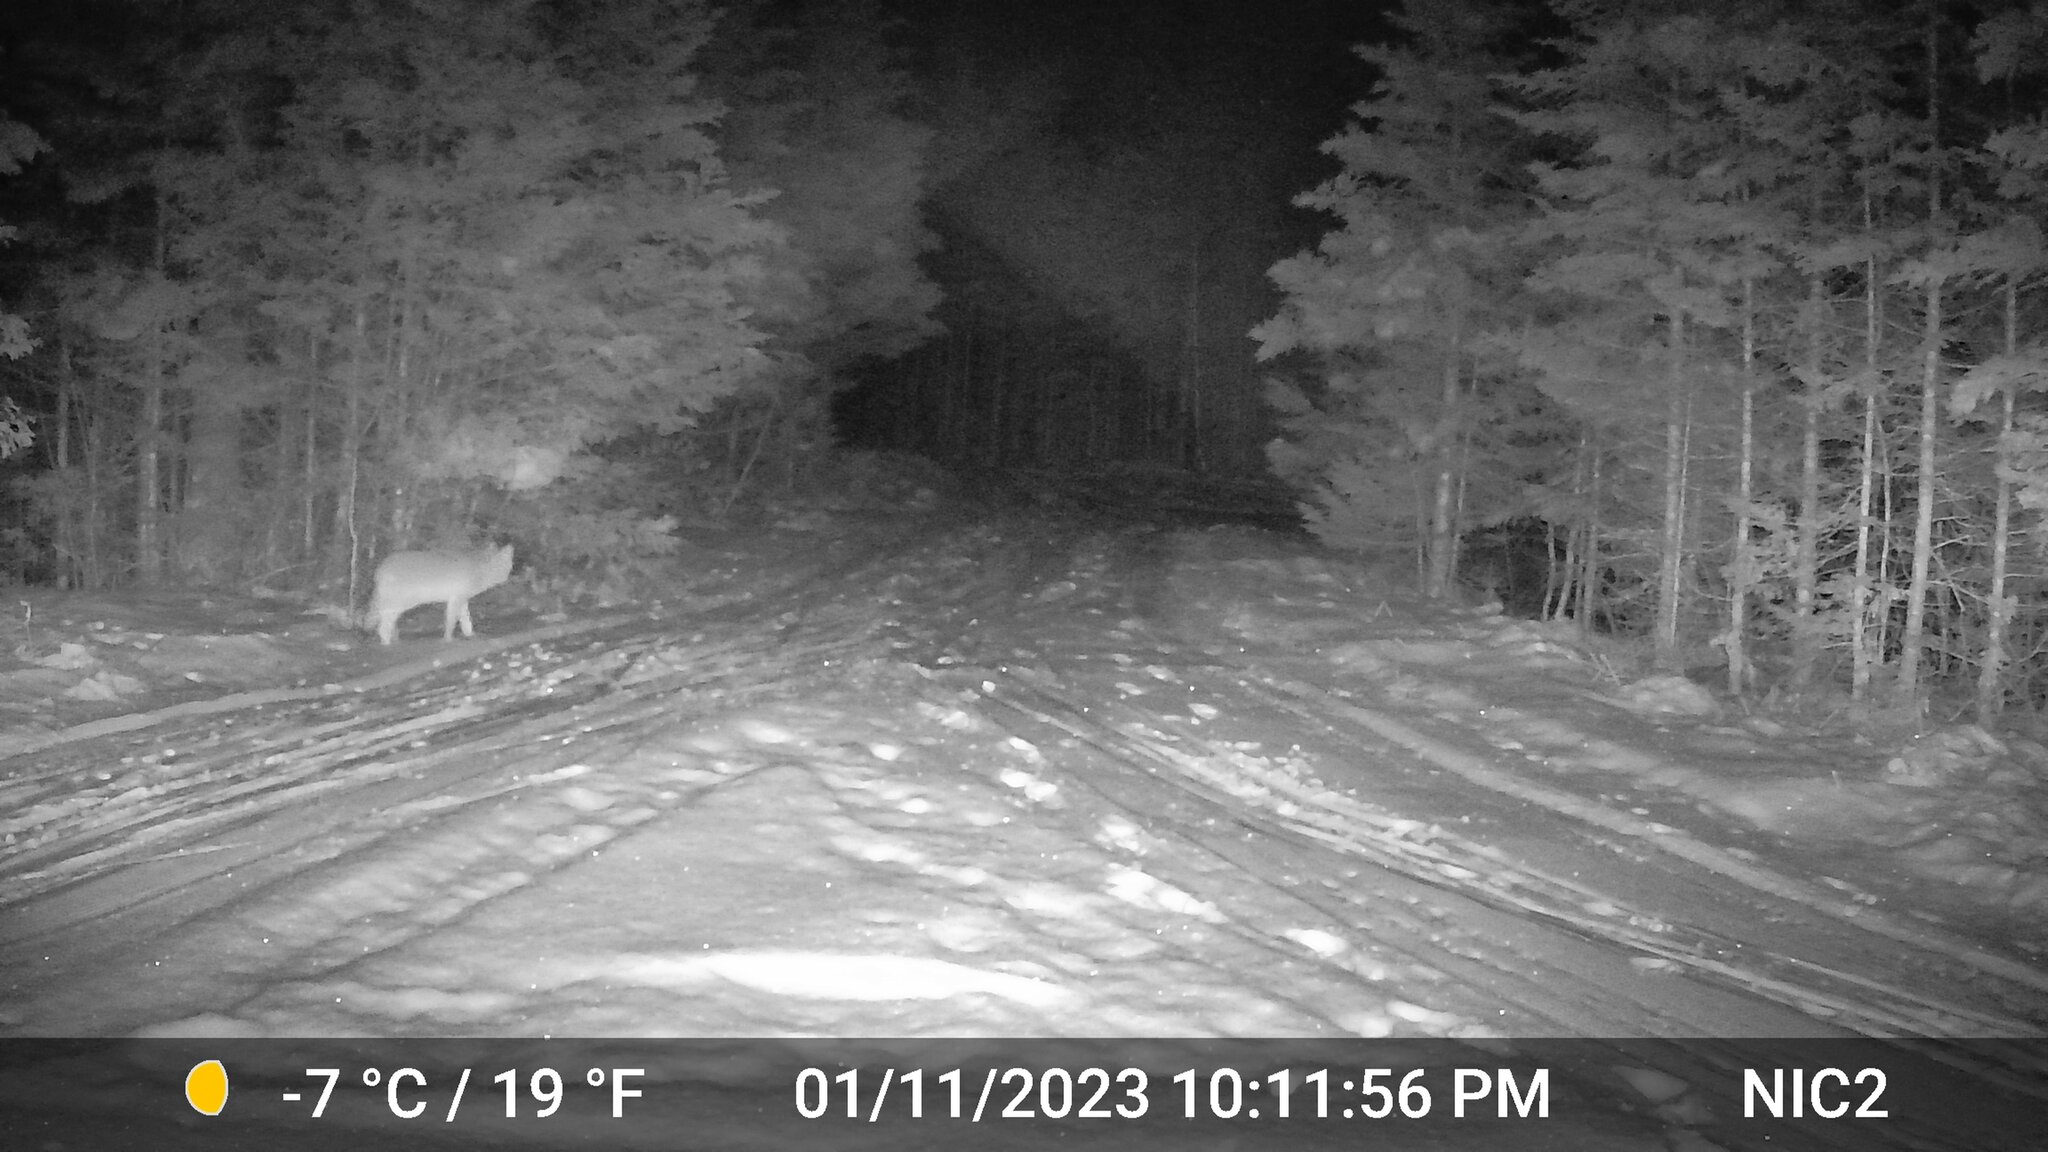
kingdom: Animalia
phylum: Chordata
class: Mammalia
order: Carnivora
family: Canidae
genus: Canis
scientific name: Canis latrans
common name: Coyote
